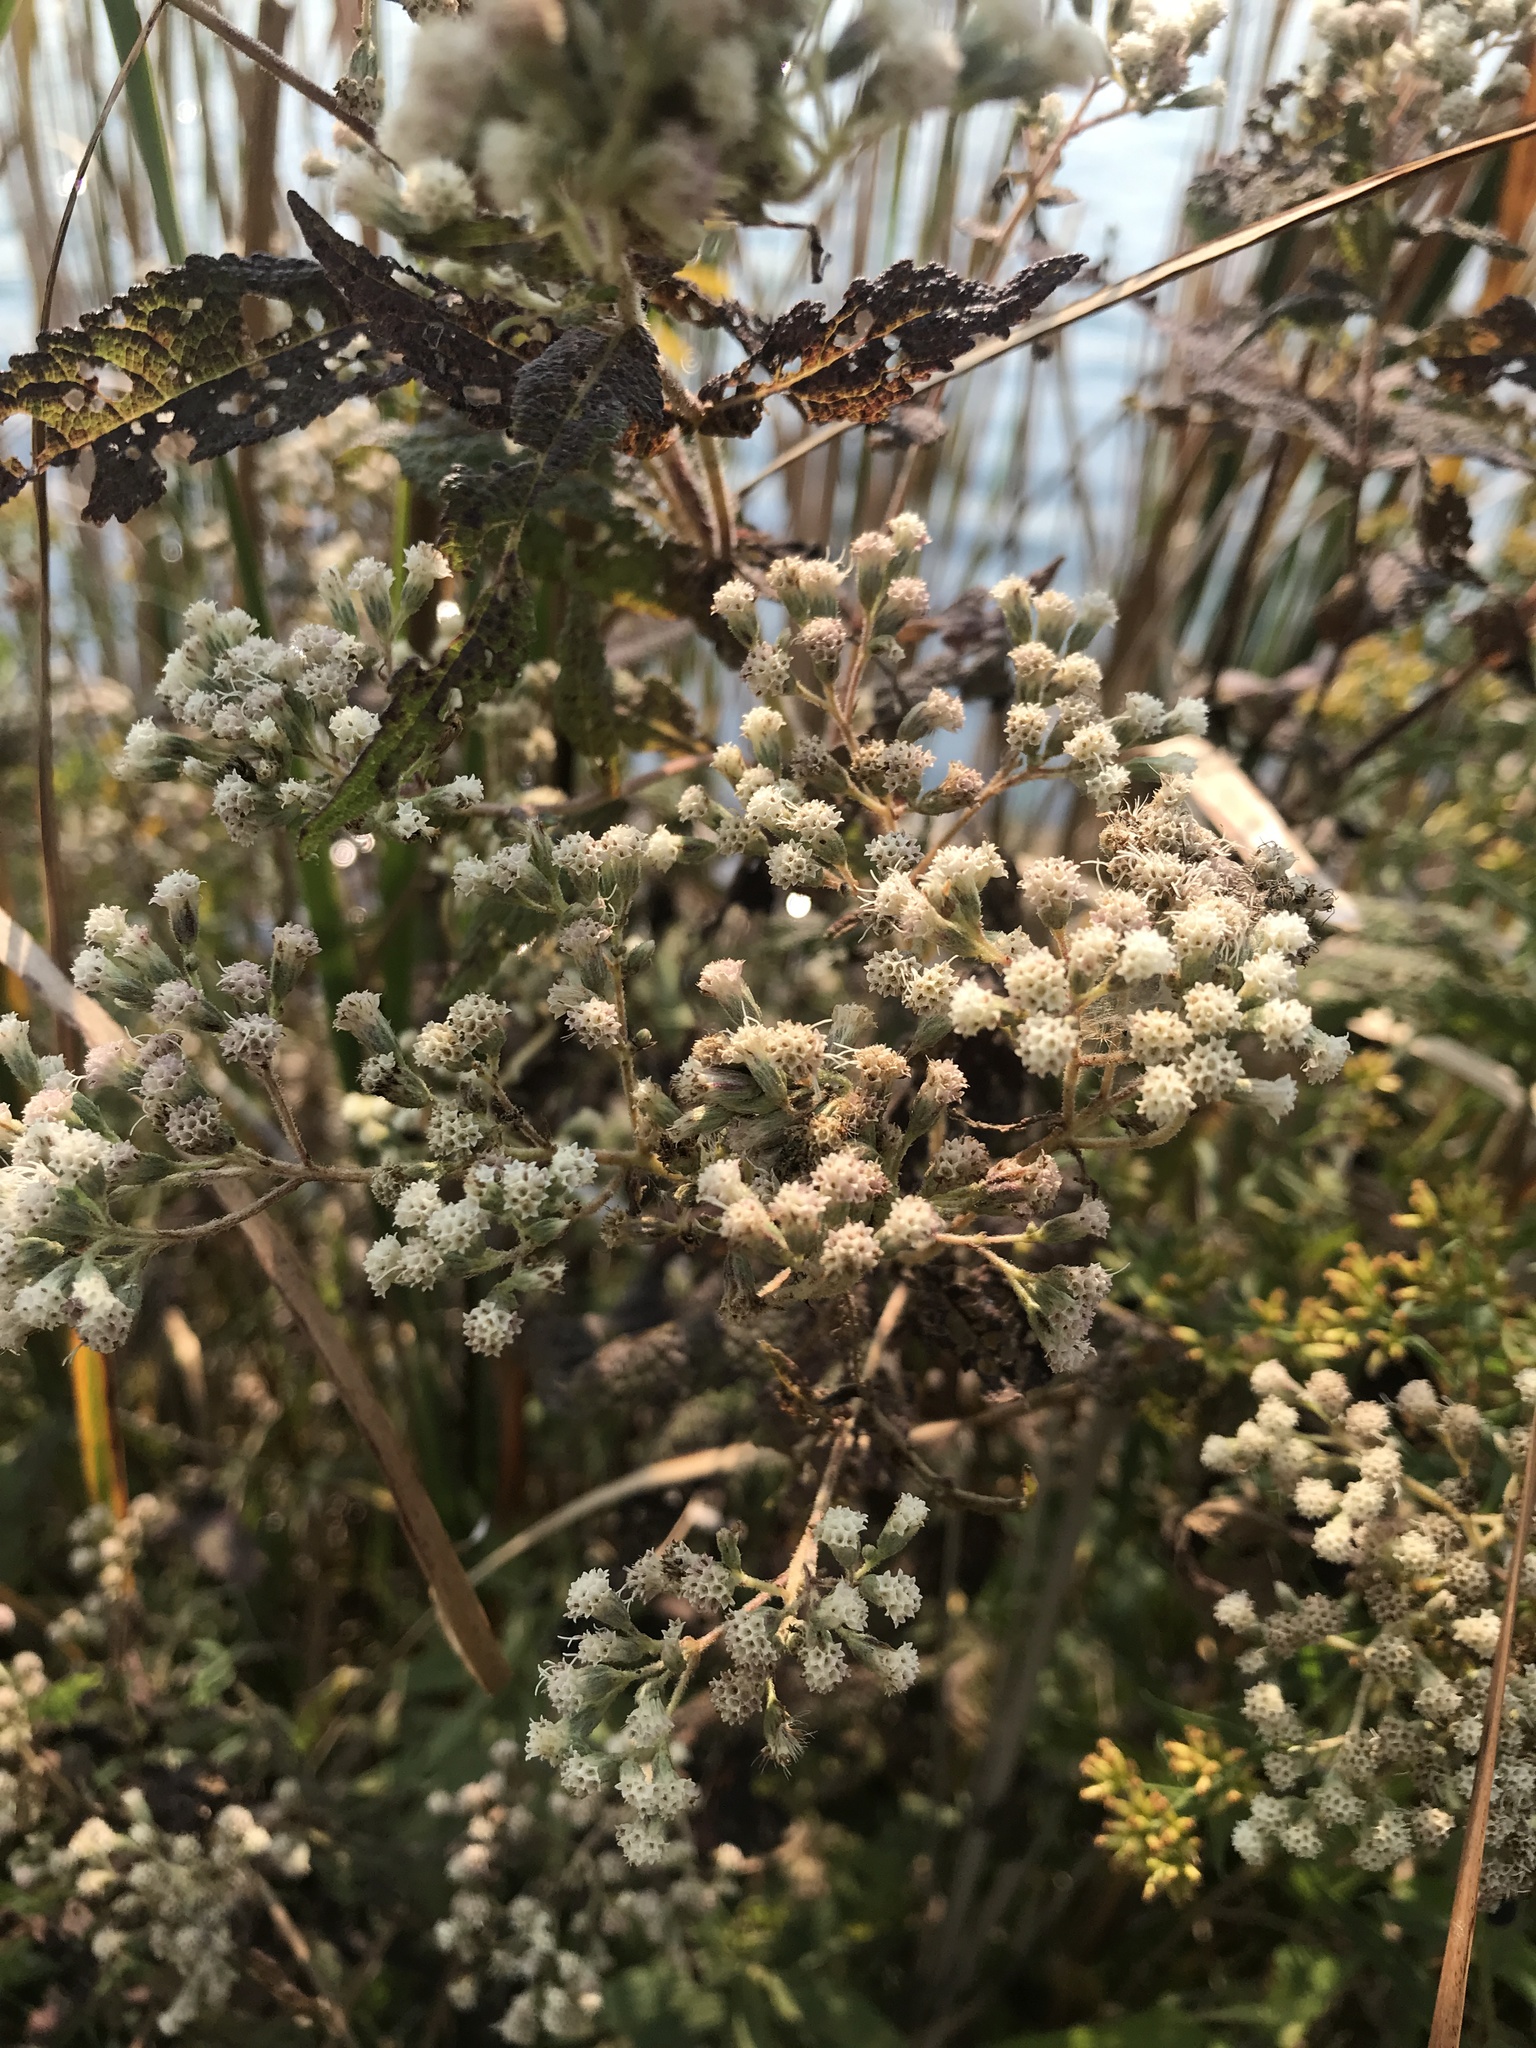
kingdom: Plantae
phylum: Tracheophyta
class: Magnoliopsida
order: Asterales
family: Asteraceae
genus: Eupatorium
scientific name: Eupatorium perfoliatum
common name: Boneset
